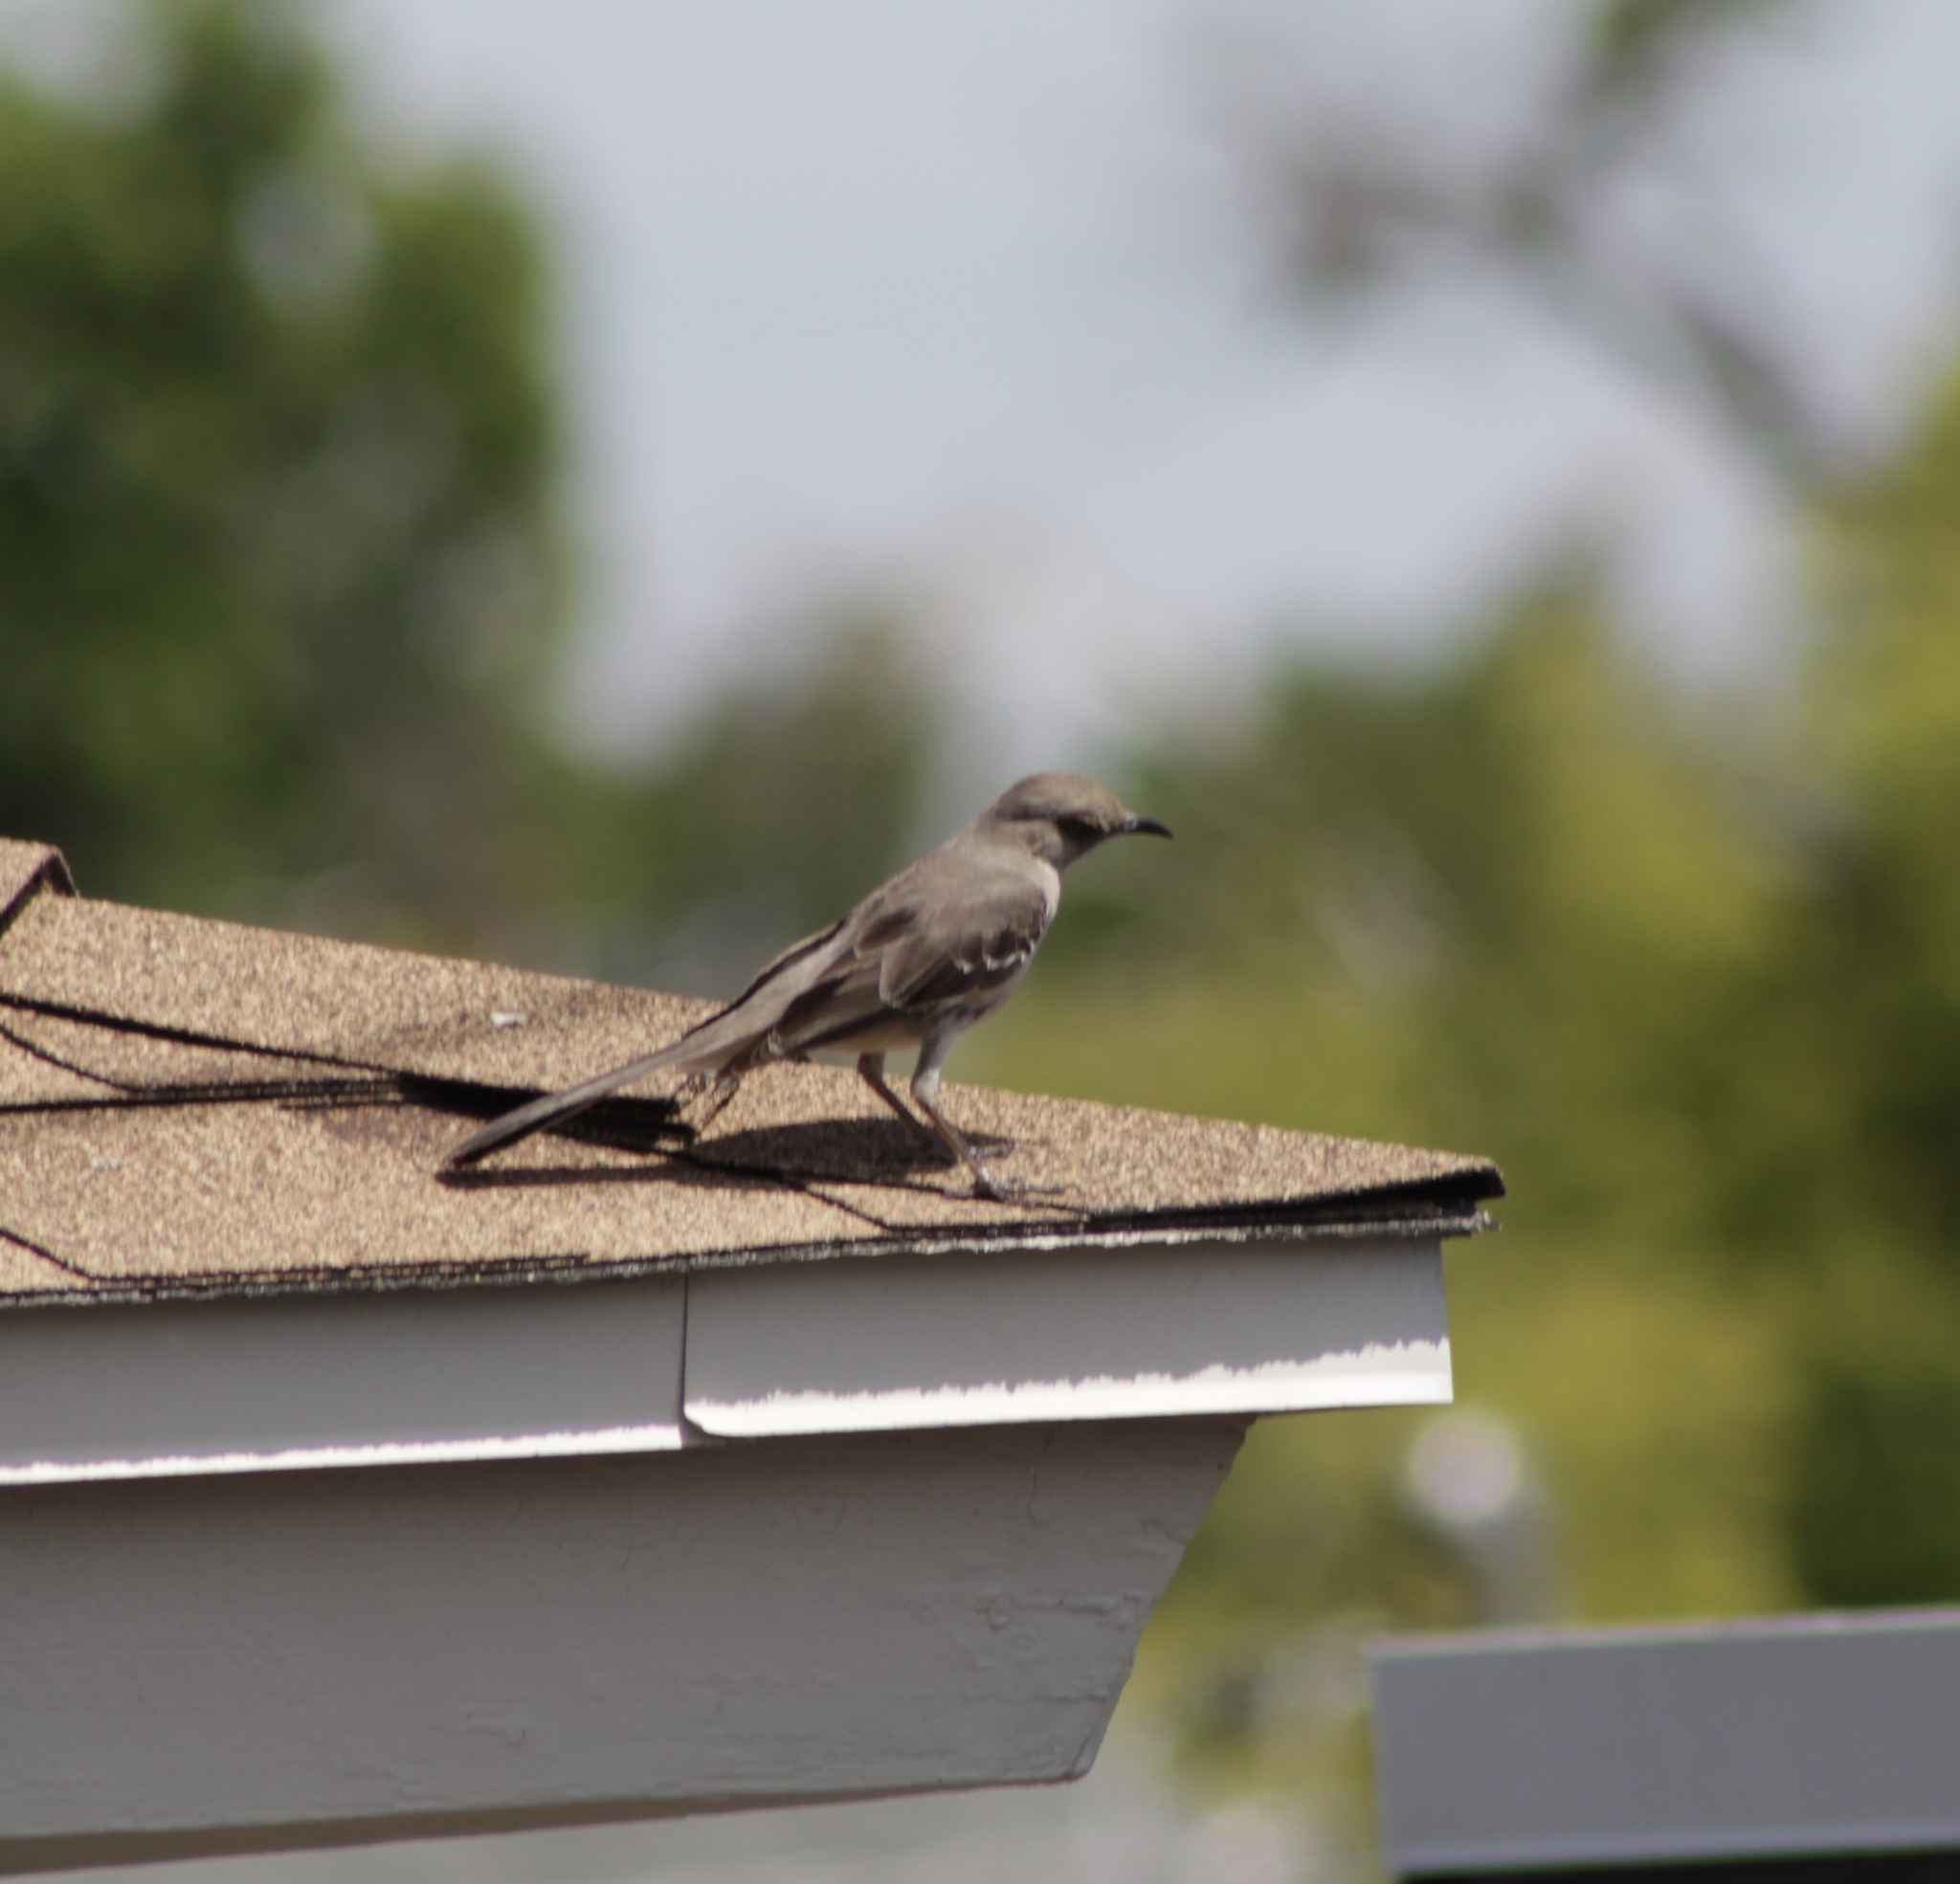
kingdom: Animalia
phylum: Chordata
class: Aves
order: Passeriformes
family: Mimidae
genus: Mimus
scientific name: Mimus polyglottos
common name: Northern mockingbird
